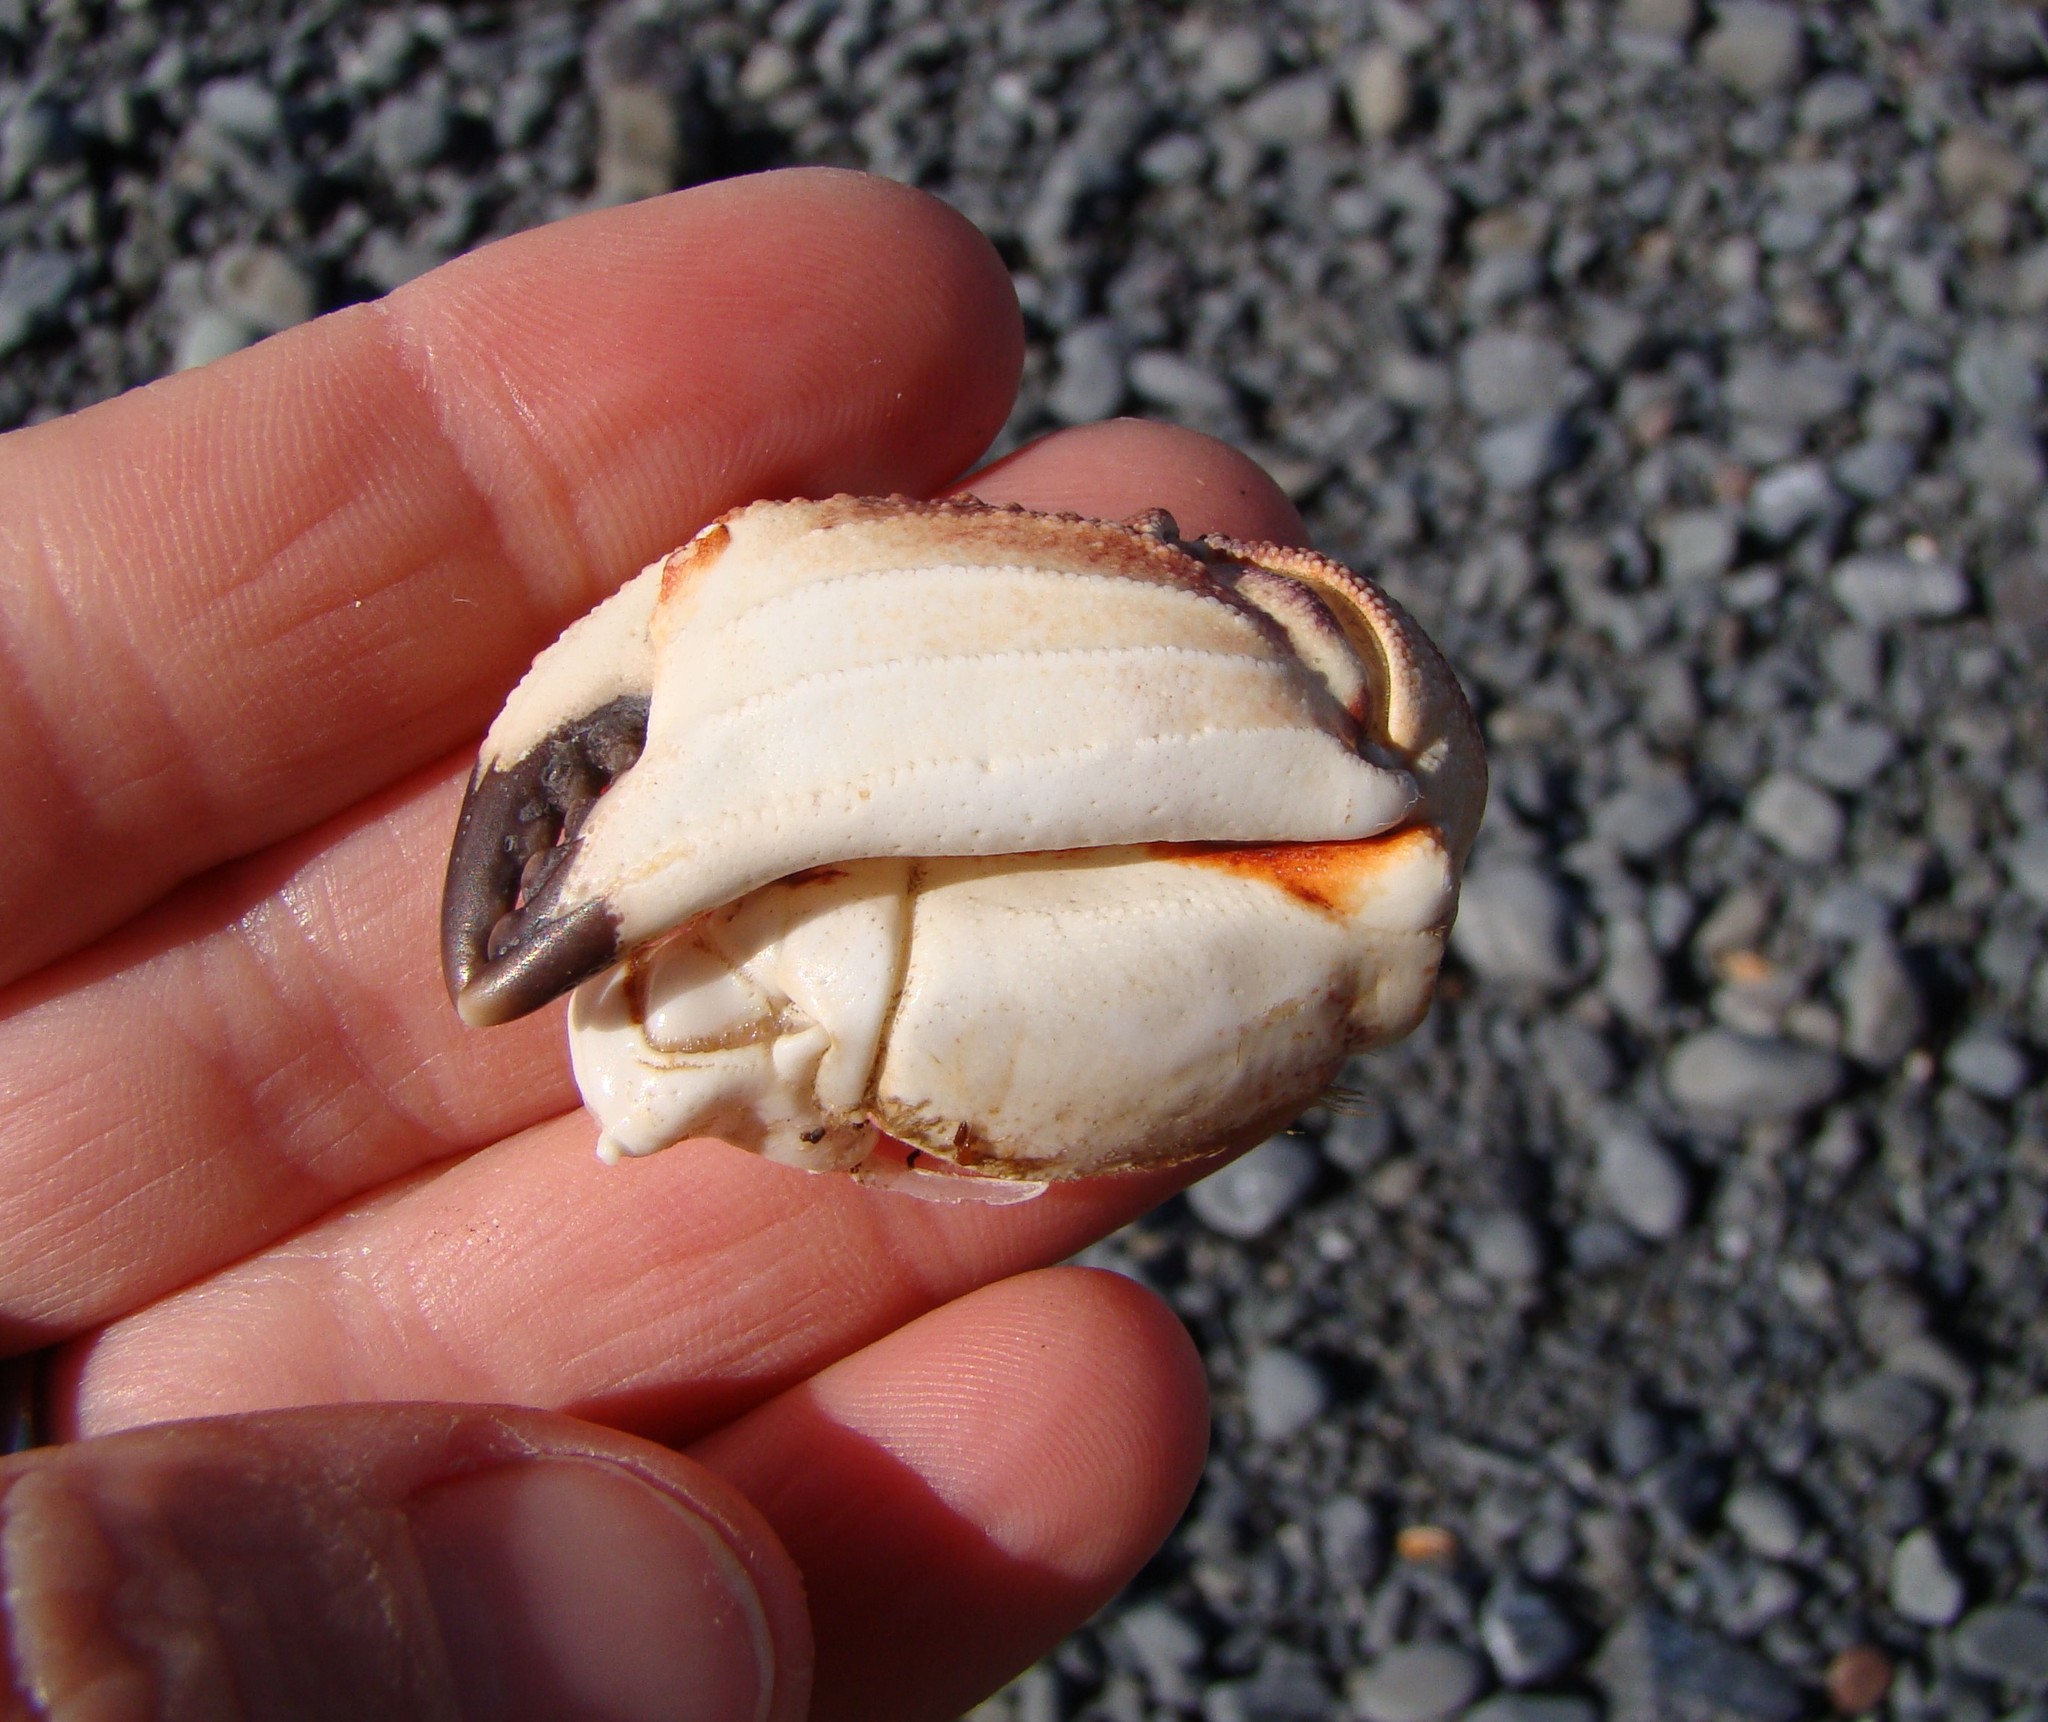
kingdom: Animalia
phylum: Arthropoda
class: Malacostraca
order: Decapoda
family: Cancridae
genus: Metacarcinus
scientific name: Metacarcinus novaezelandiae
